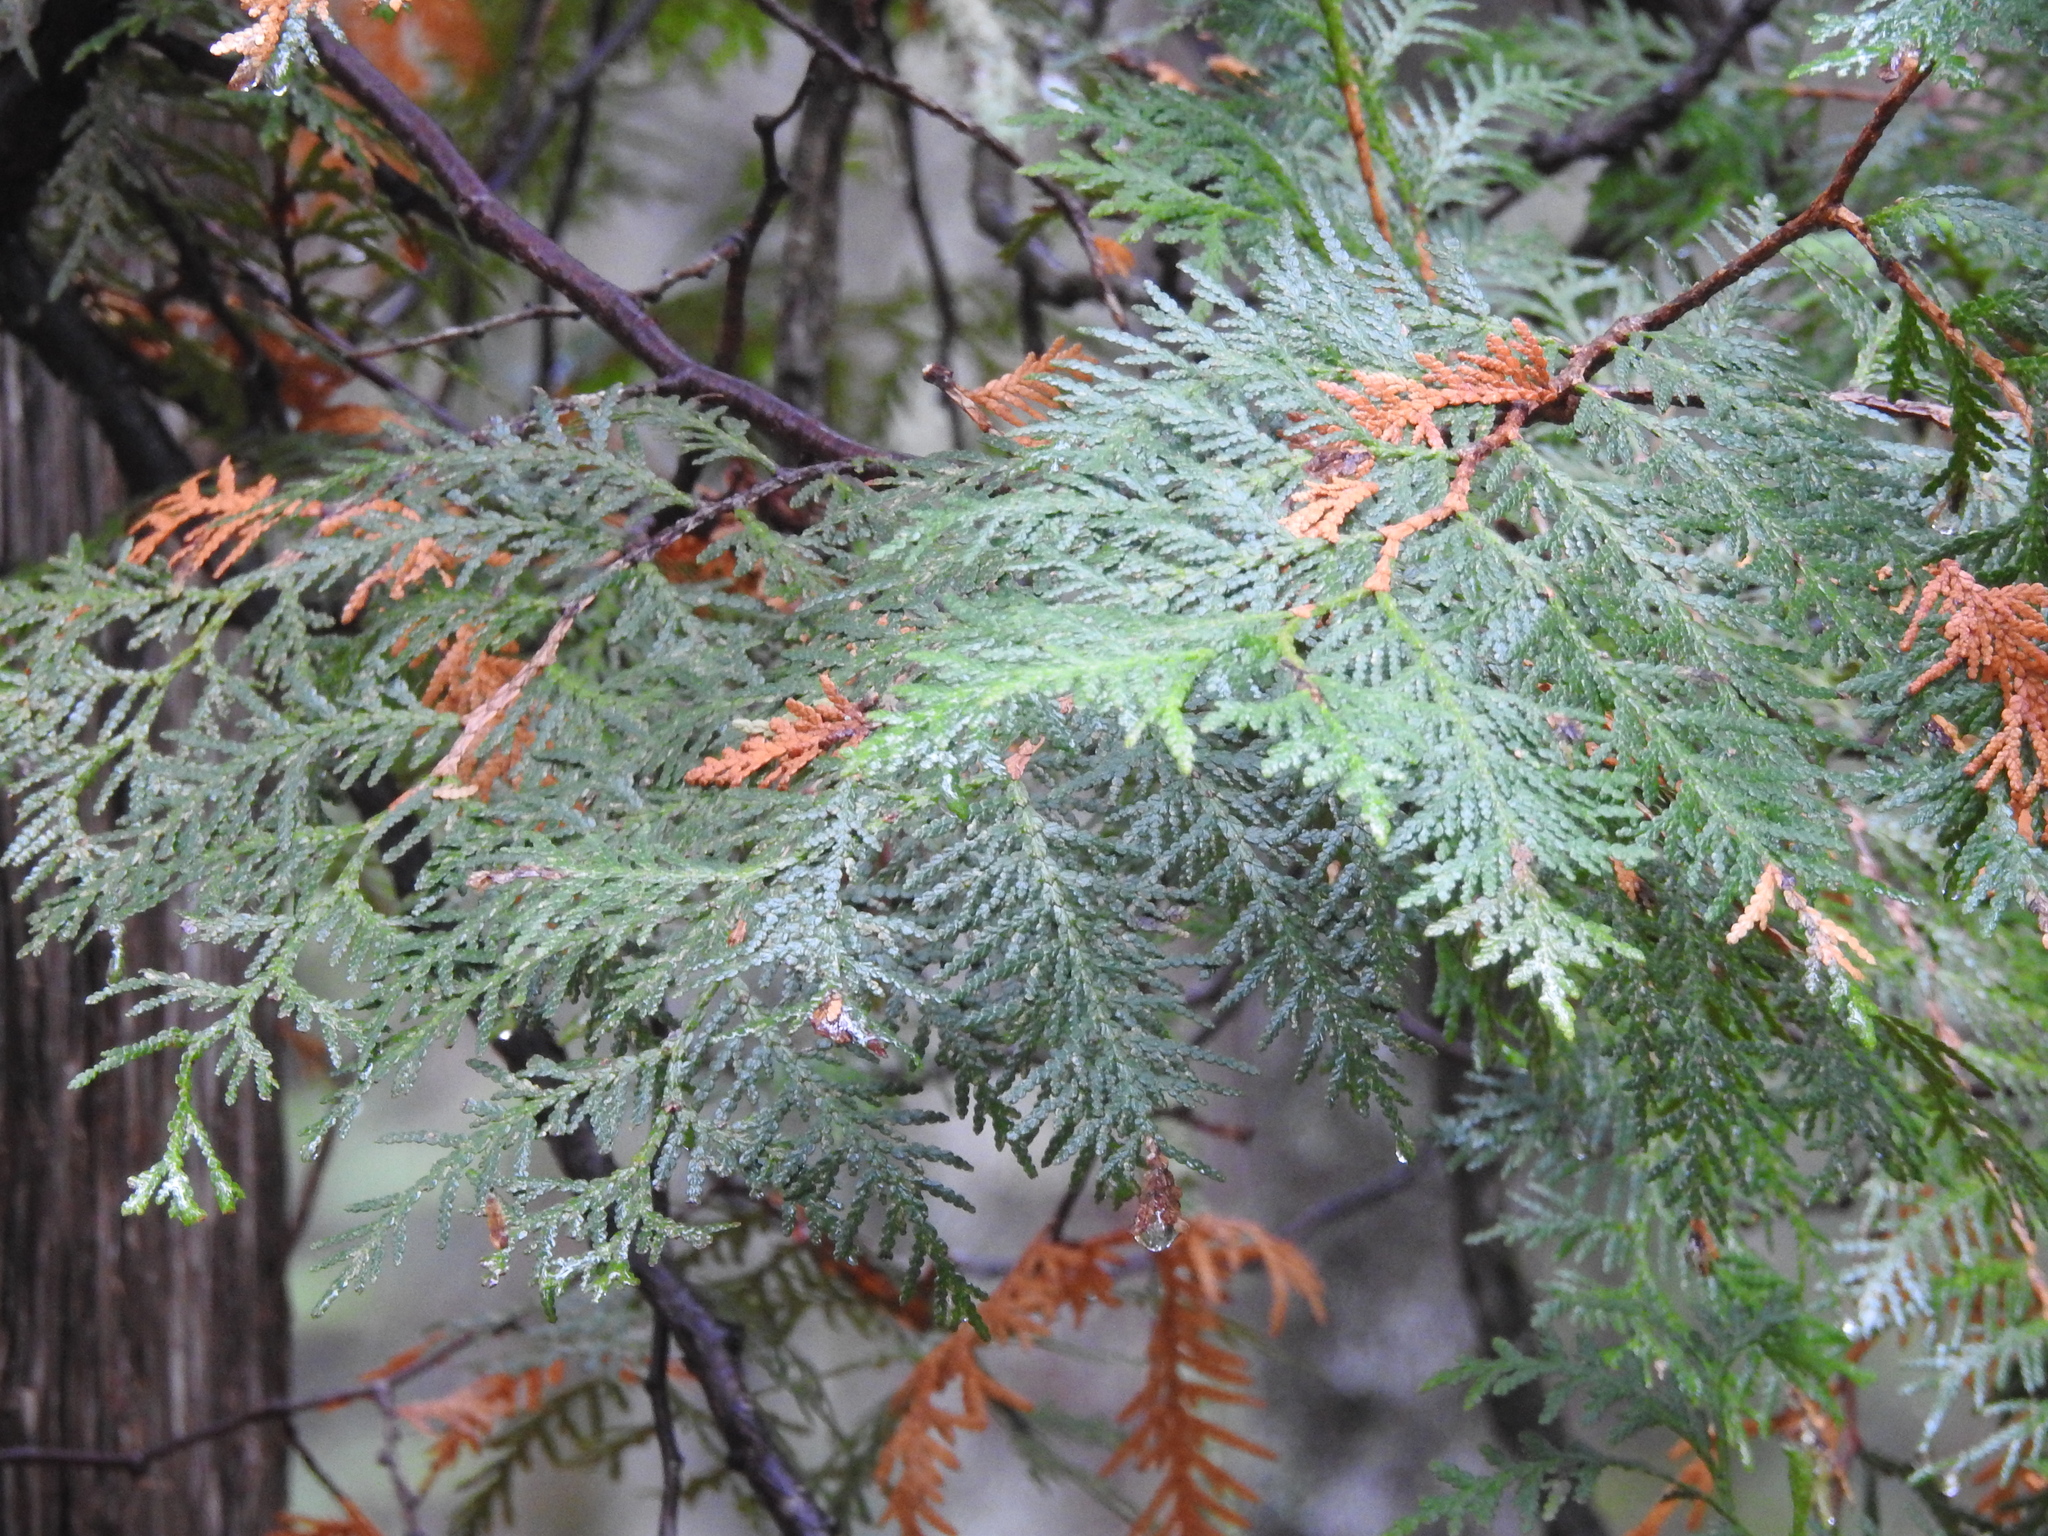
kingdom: Plantae
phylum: Tracheophyta
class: Pinopsida
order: Pinales
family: Cupressaceae
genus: Thuja
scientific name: Thuja occidentalis
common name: Northern white-cedar
